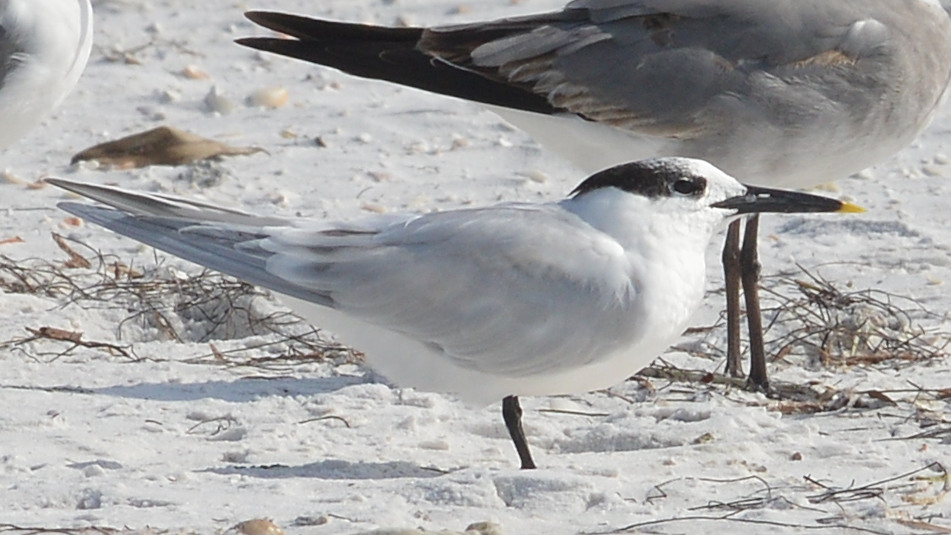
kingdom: Animalia
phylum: Chordata
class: Aves
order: Charadriiformes
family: Laridae
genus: Thalasseus
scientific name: Thalasseus sandvicensis
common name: Sandwich tern
